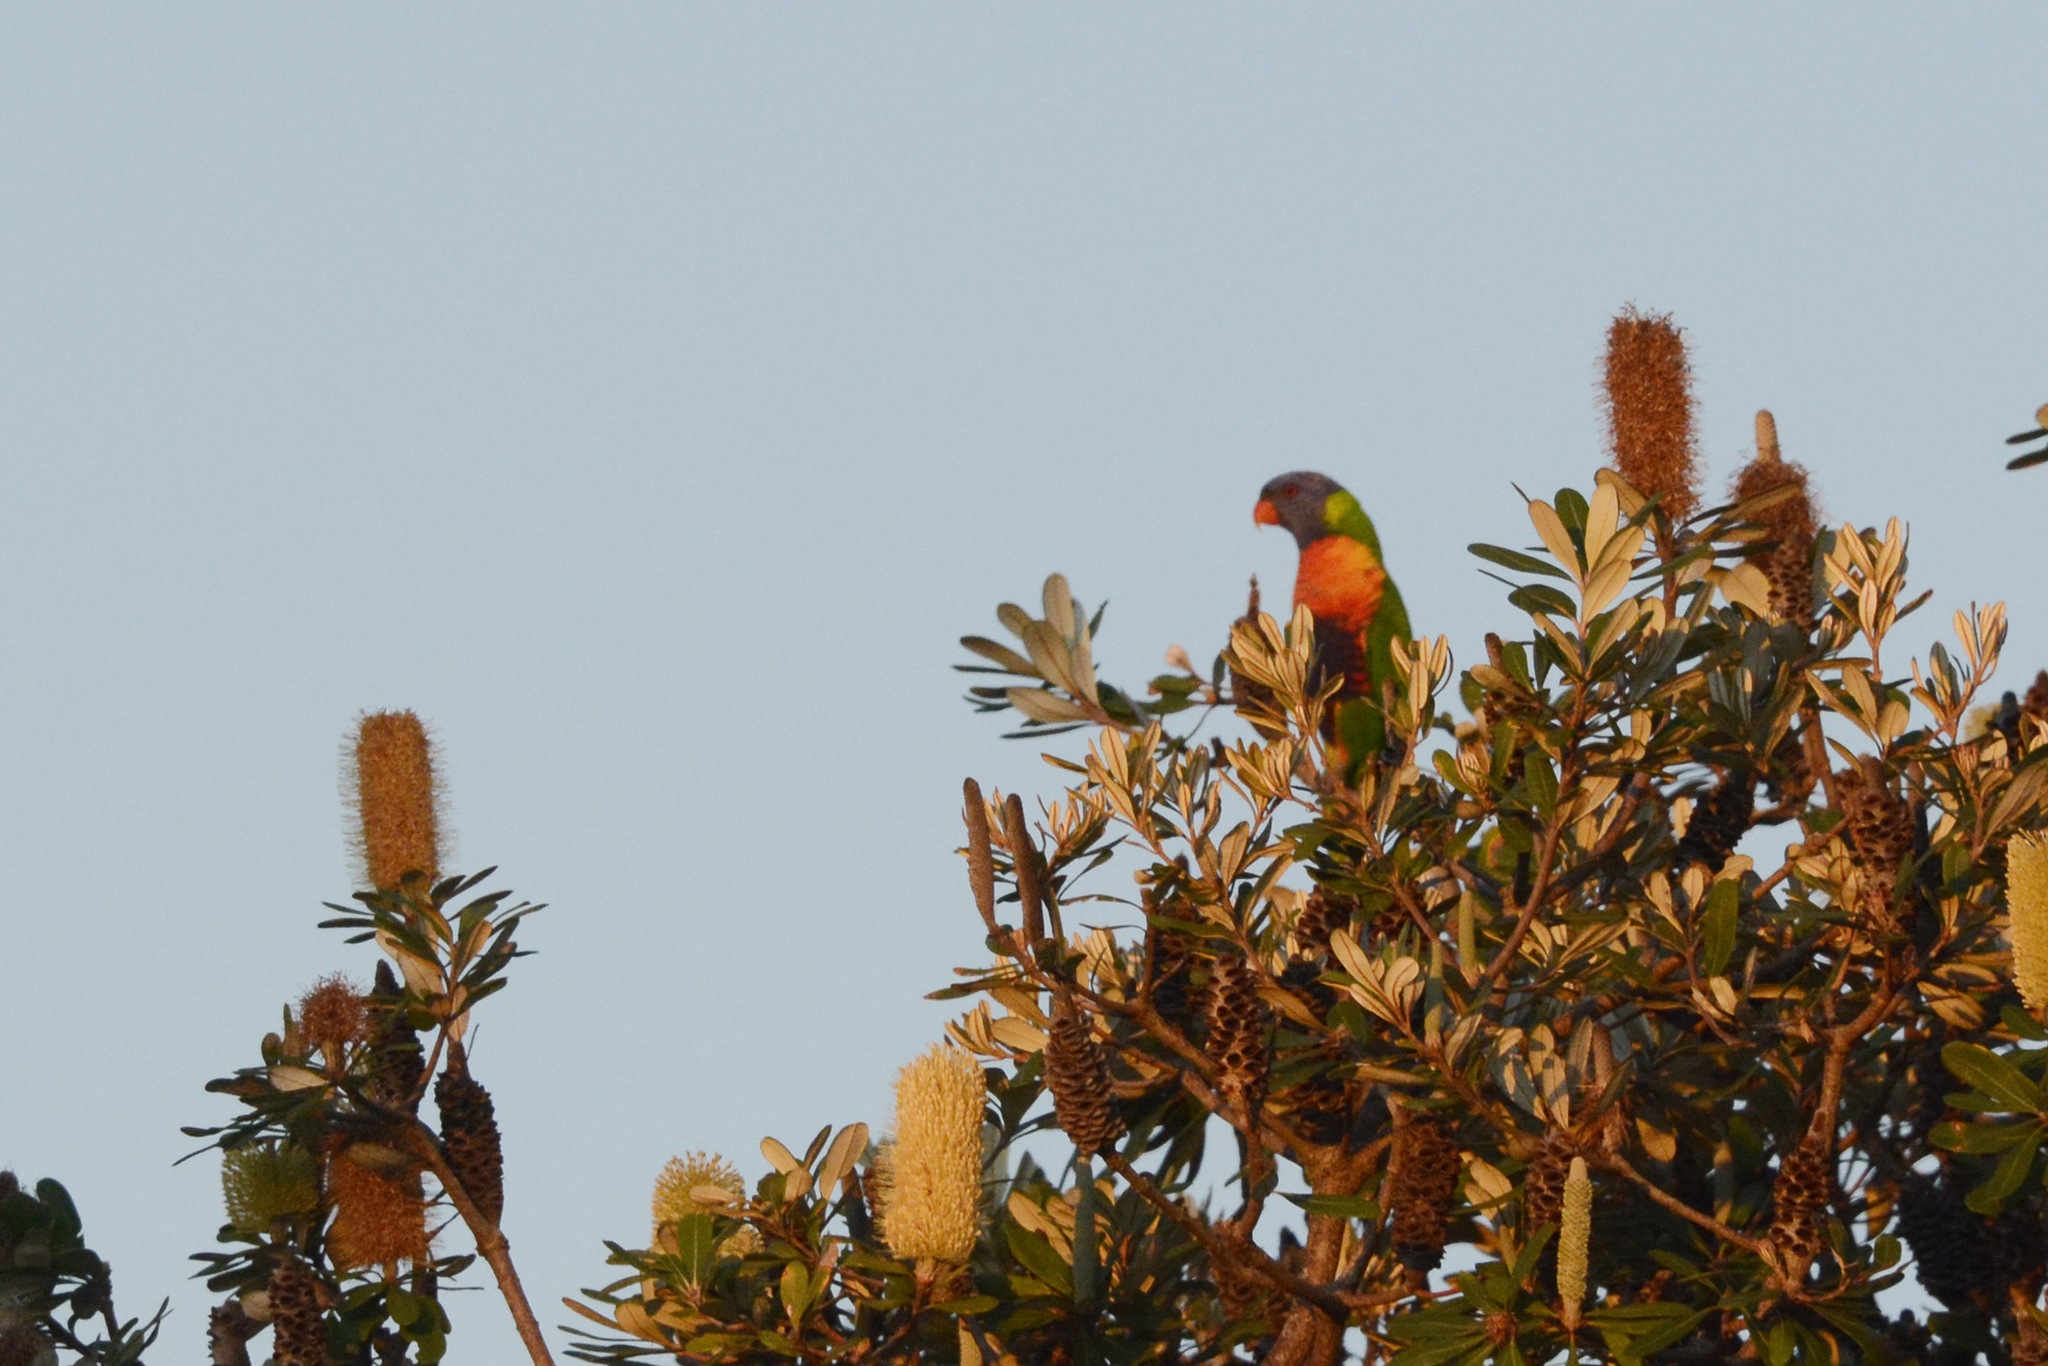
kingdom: Animalia
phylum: Chordata
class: Aves
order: Psittaciformes
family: Psittacidae
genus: Trichoglossus
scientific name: Trichoglossus haematodus
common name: Coconut lorikeet
